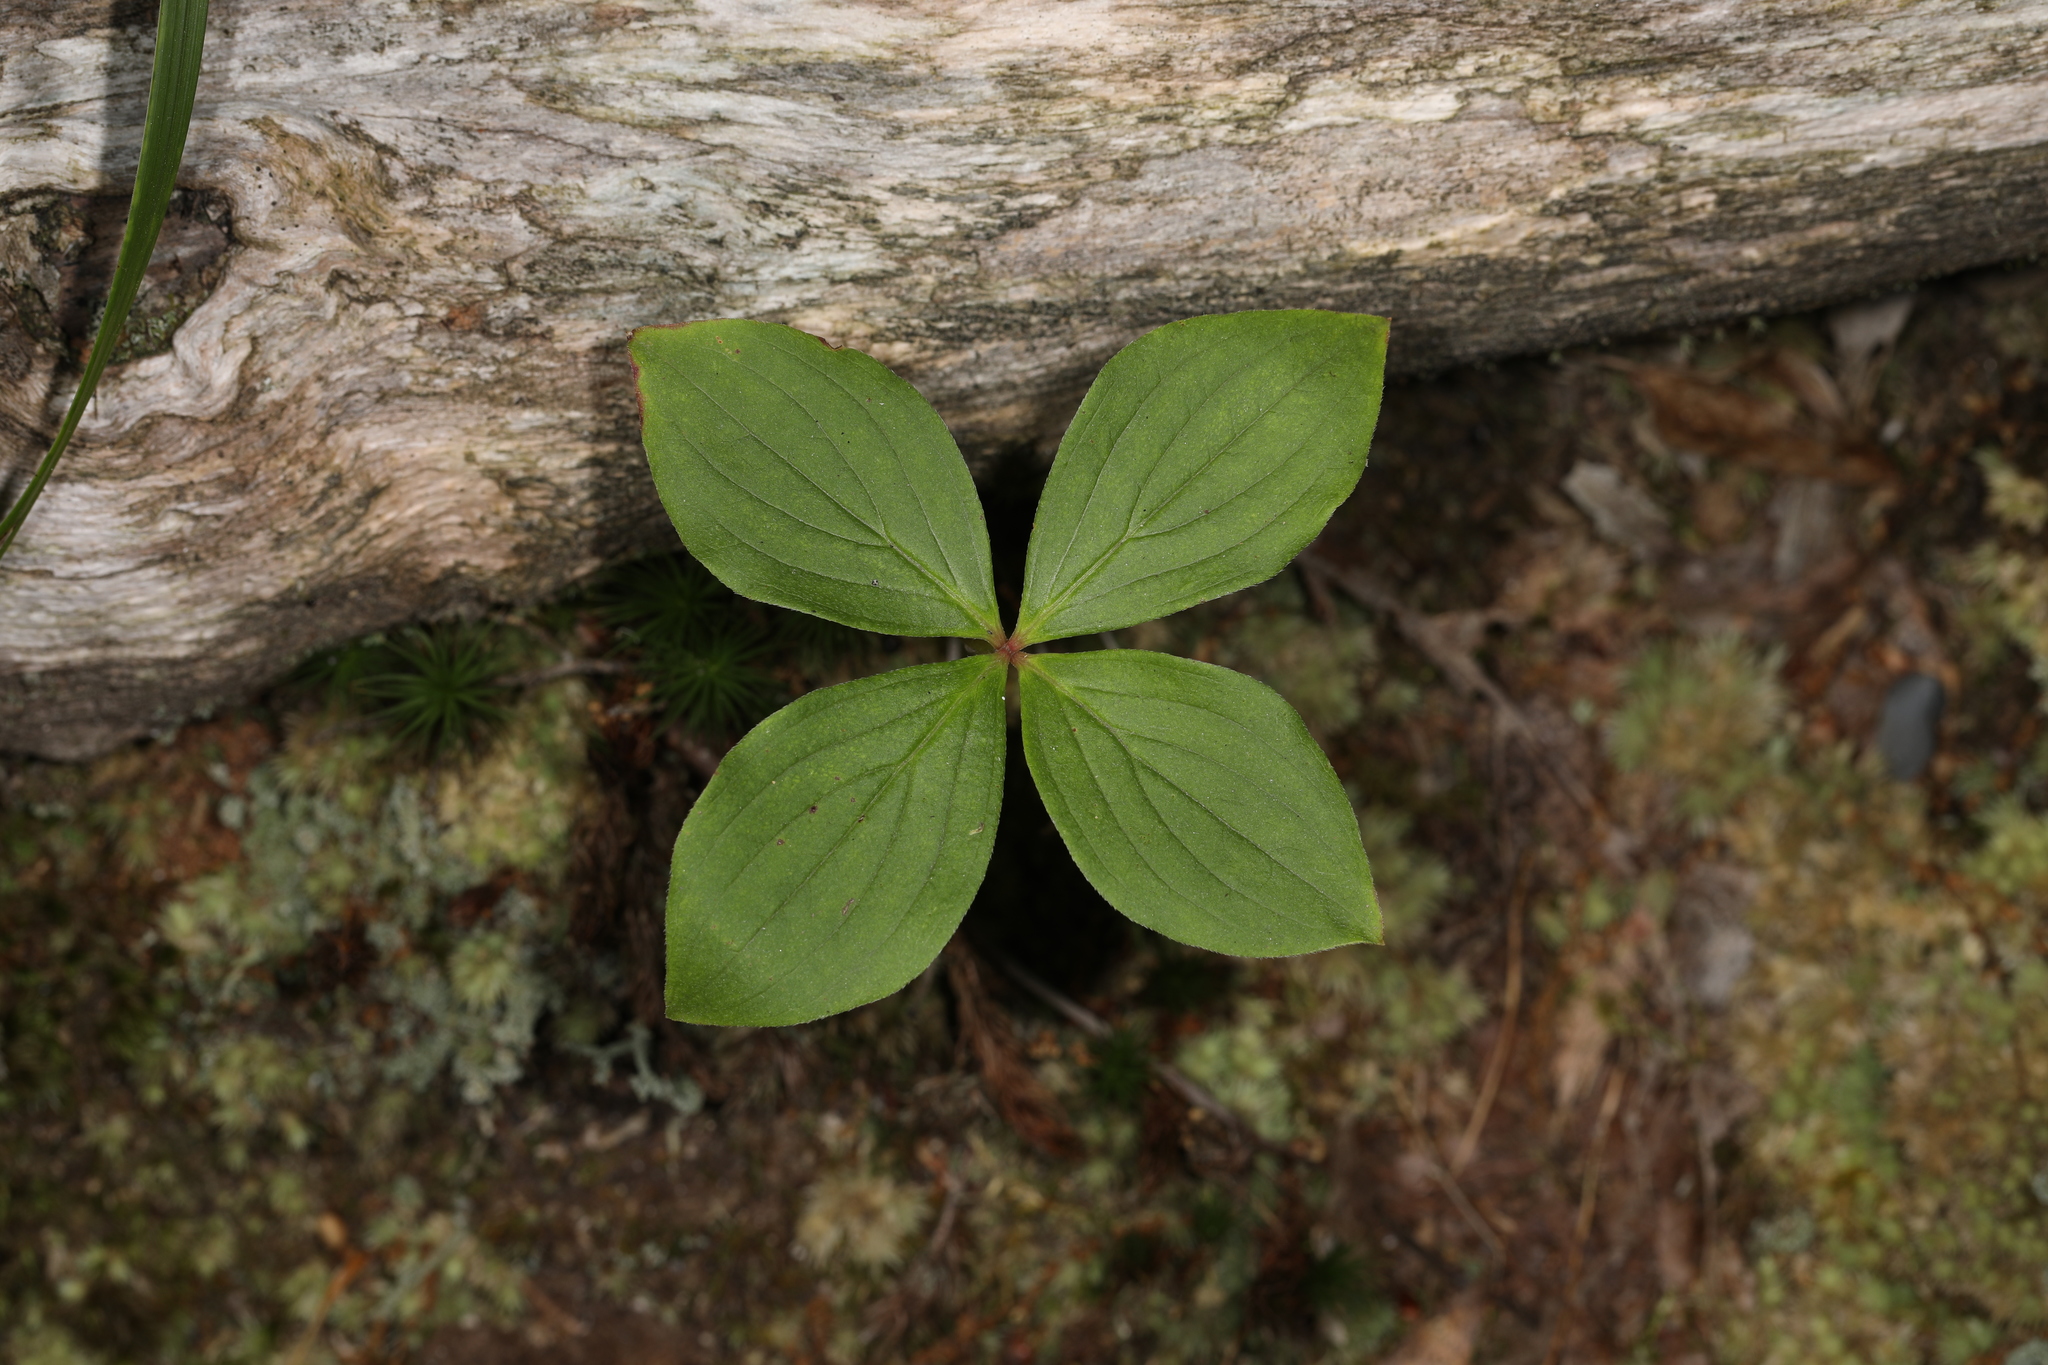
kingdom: Plantae
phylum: Tracheophyta
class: Magnoliopsida
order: Cornales
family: Cornaceae
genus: Cornus
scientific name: Cornus canadensis
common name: Creeping dogwood
